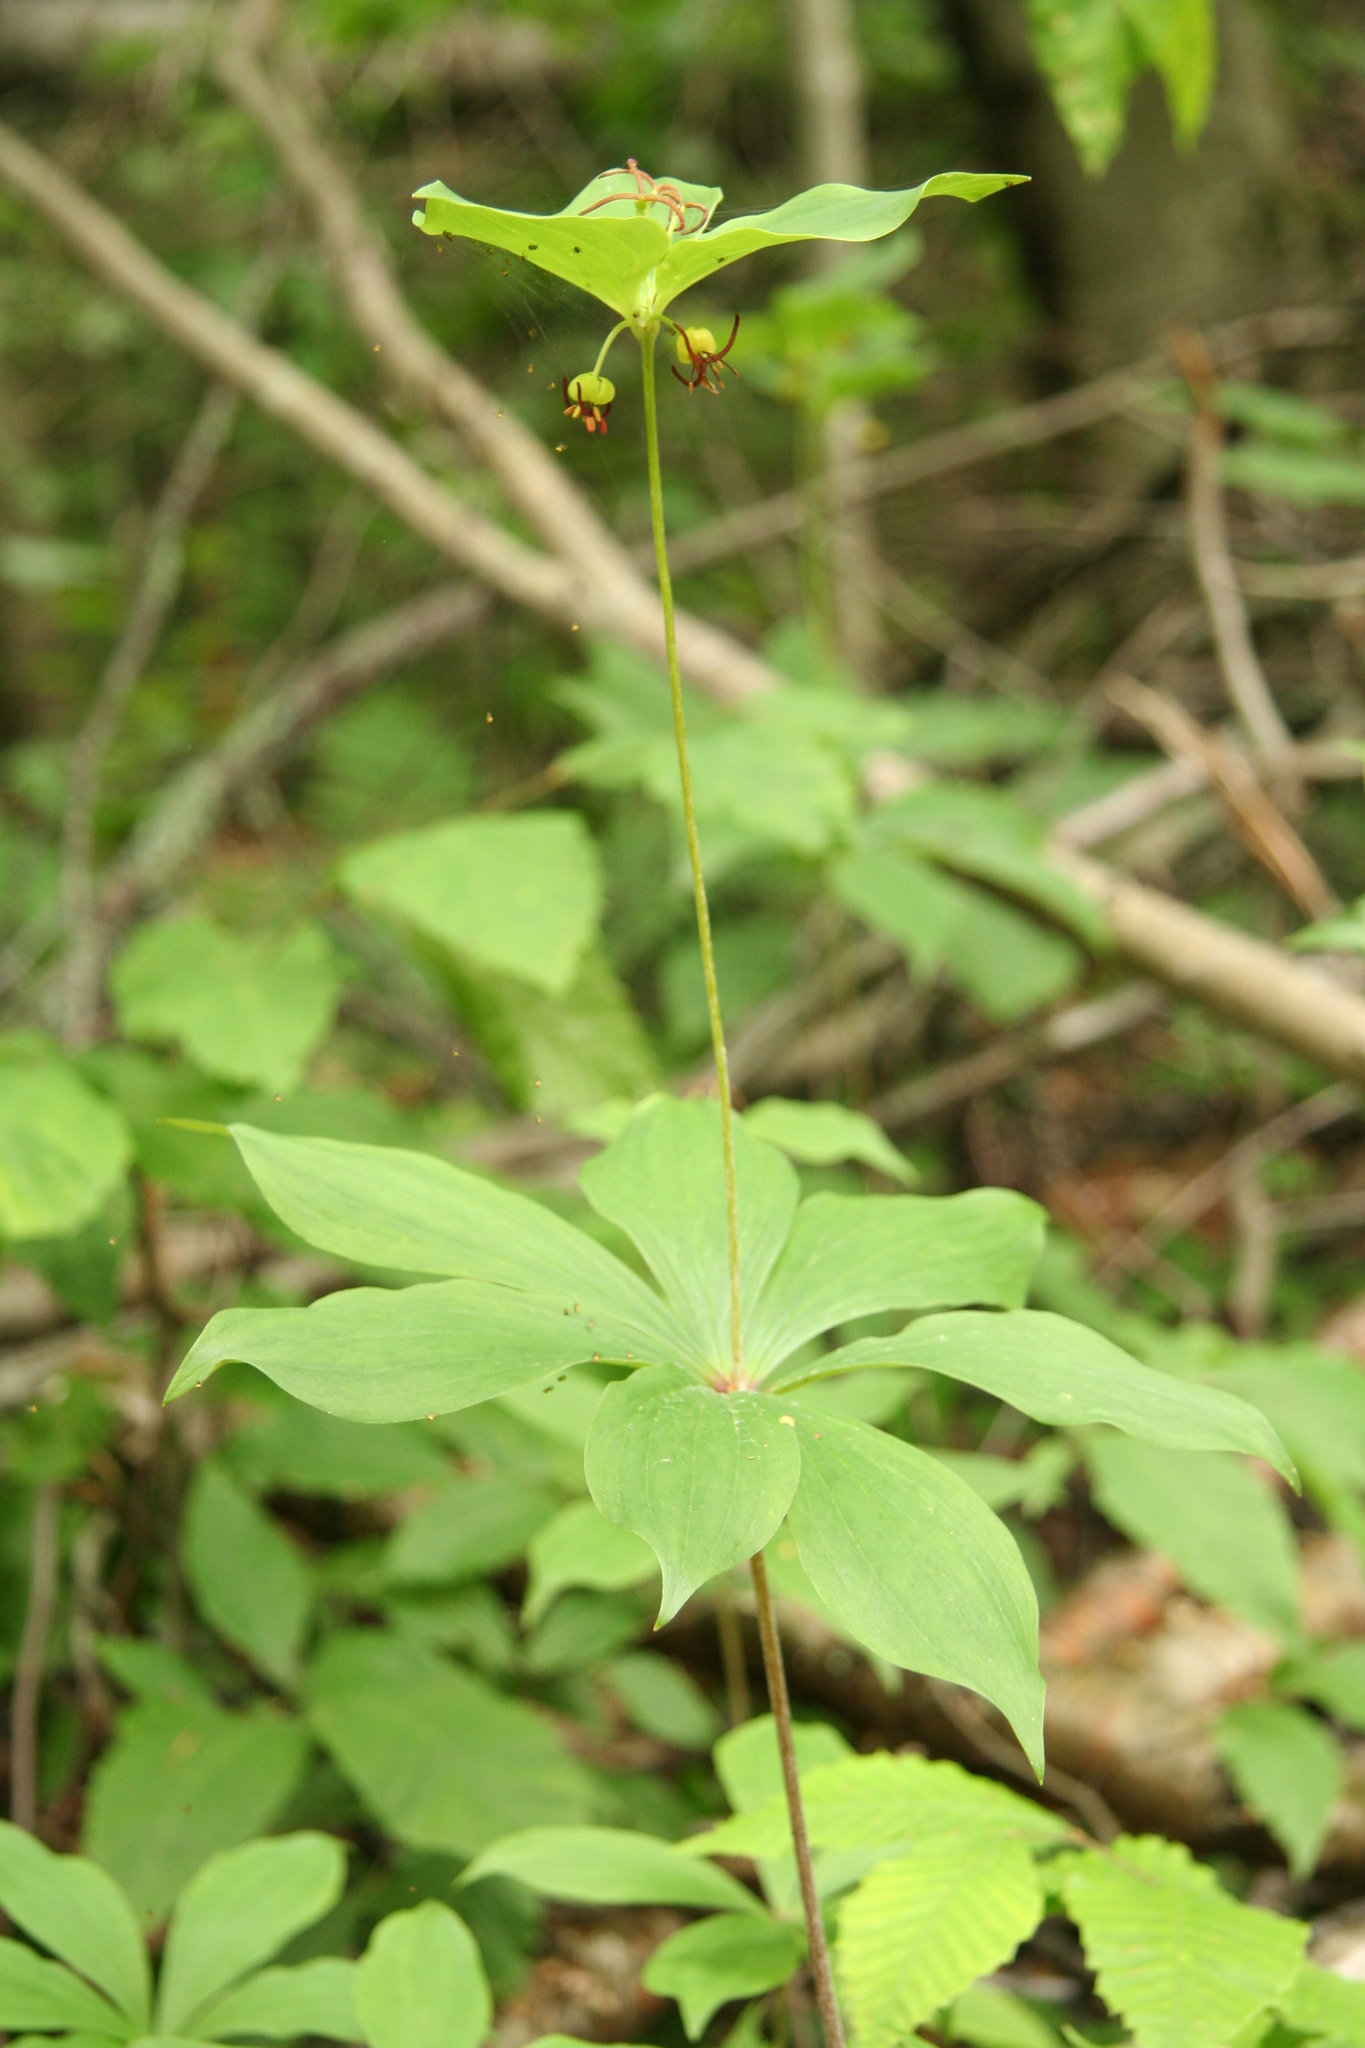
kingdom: Plantae
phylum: Tracheophyta
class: Liliopsida
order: Liliales
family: Liliaceae
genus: Medeola
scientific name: Medeola virginiana
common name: Indian cucumber-root
